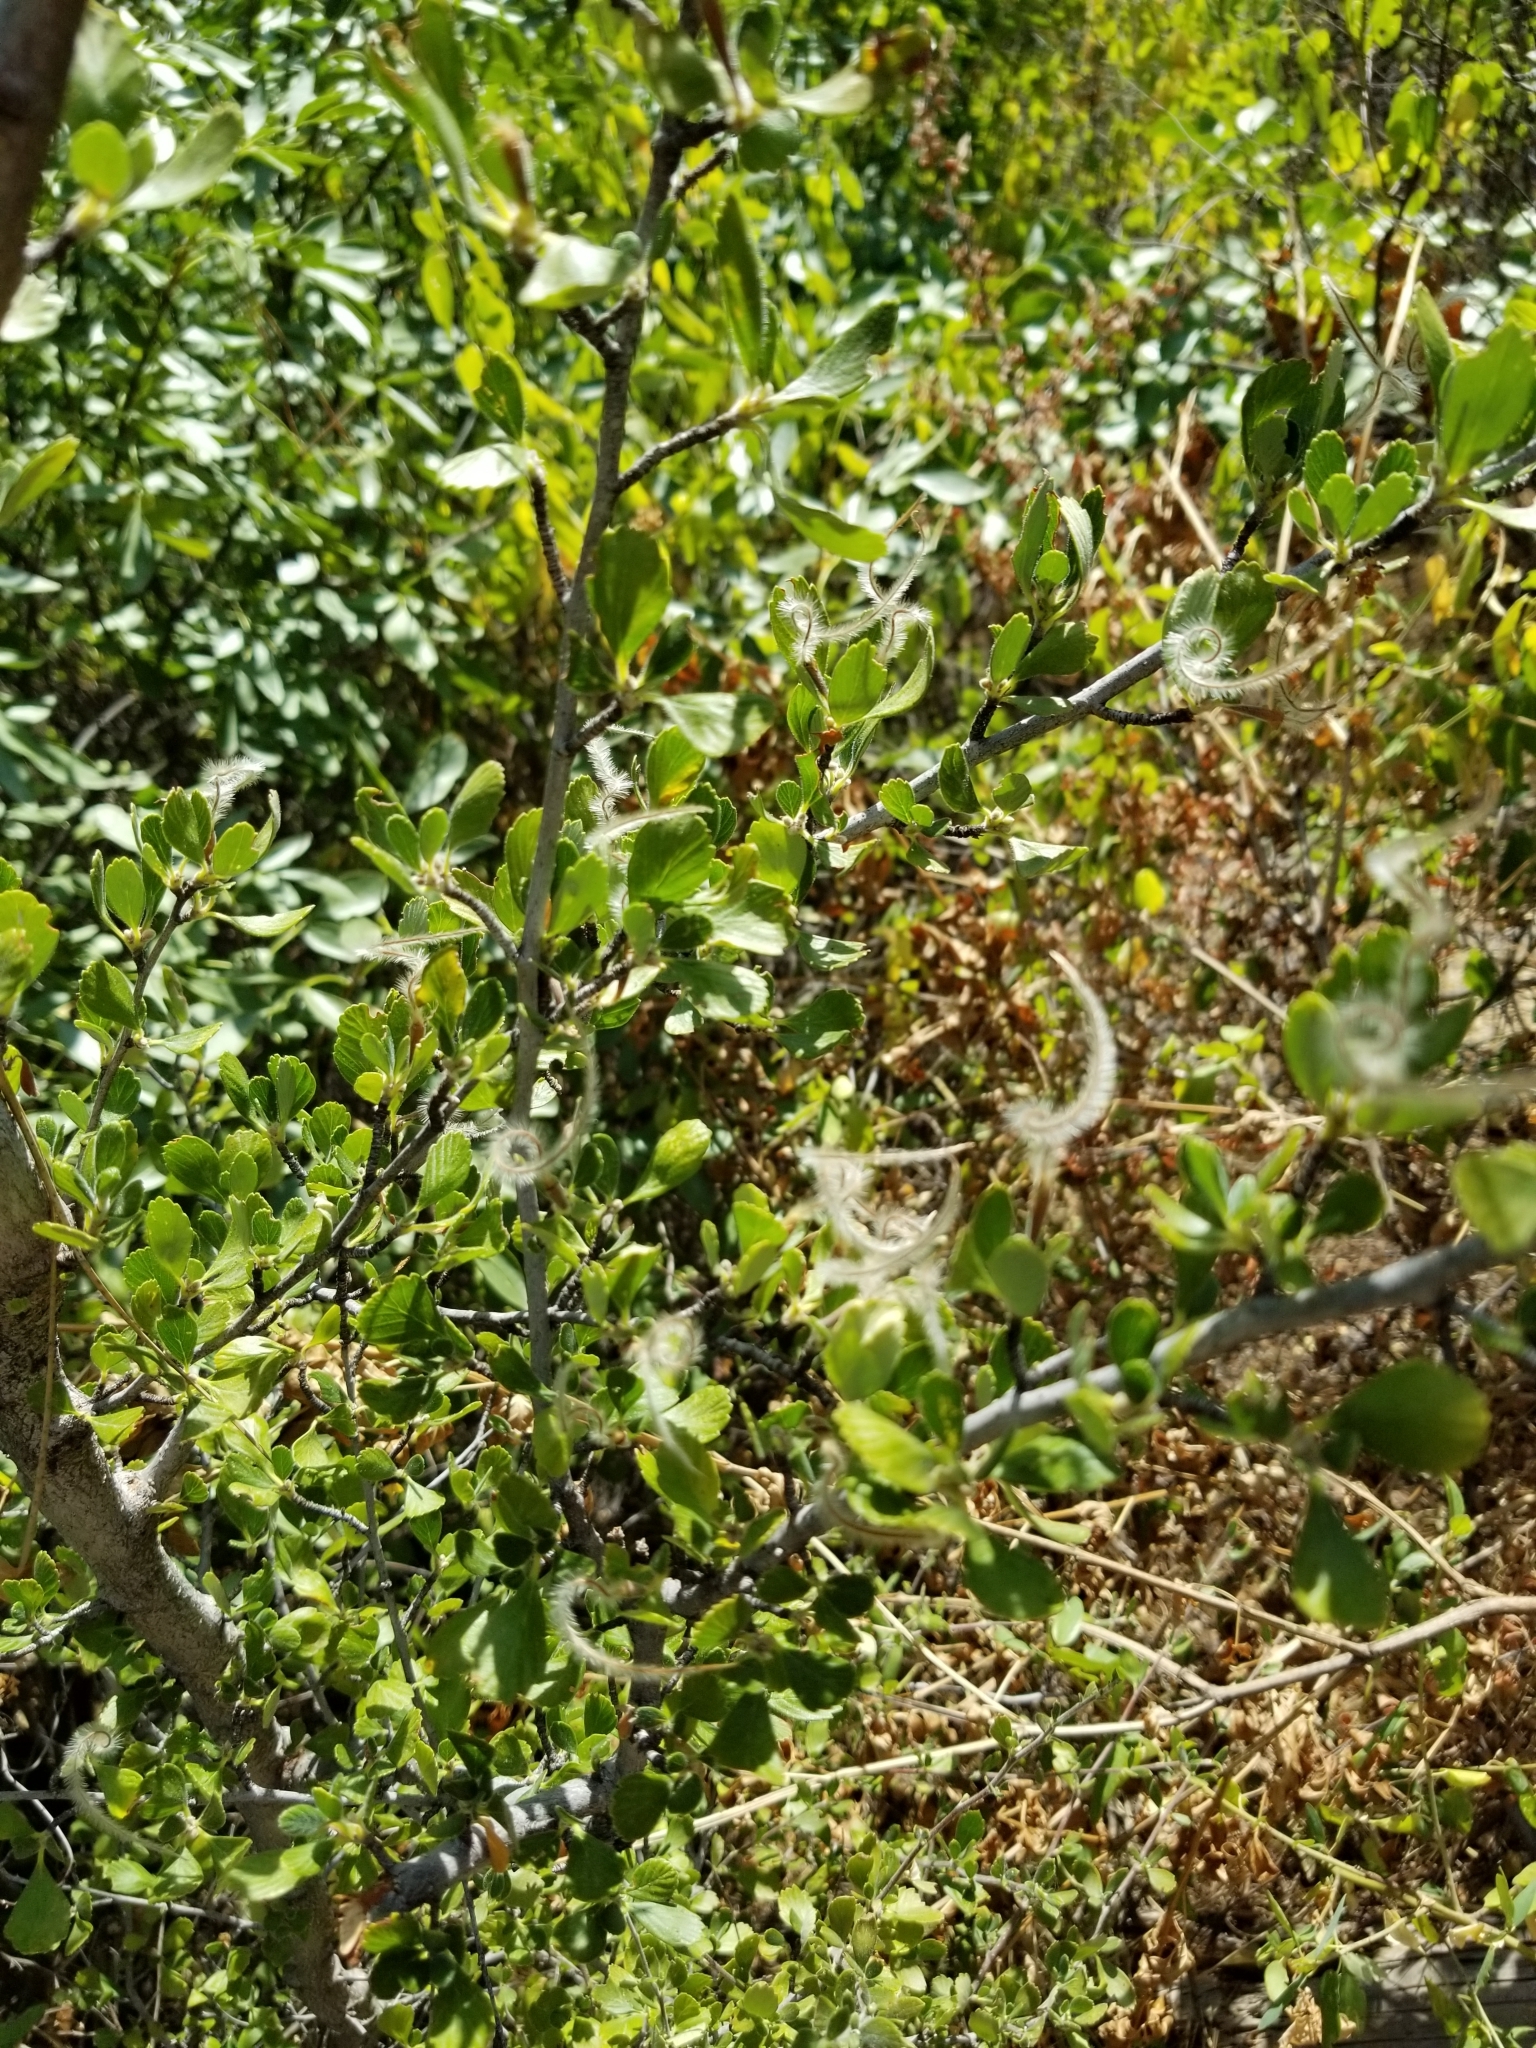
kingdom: Plantae
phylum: Tracheophyta
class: Magnoliopsida
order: Rosales
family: Rosaceae
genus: Cercocarpus
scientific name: Cercocarpus montanus
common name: Alder-leaf cercocarpus
